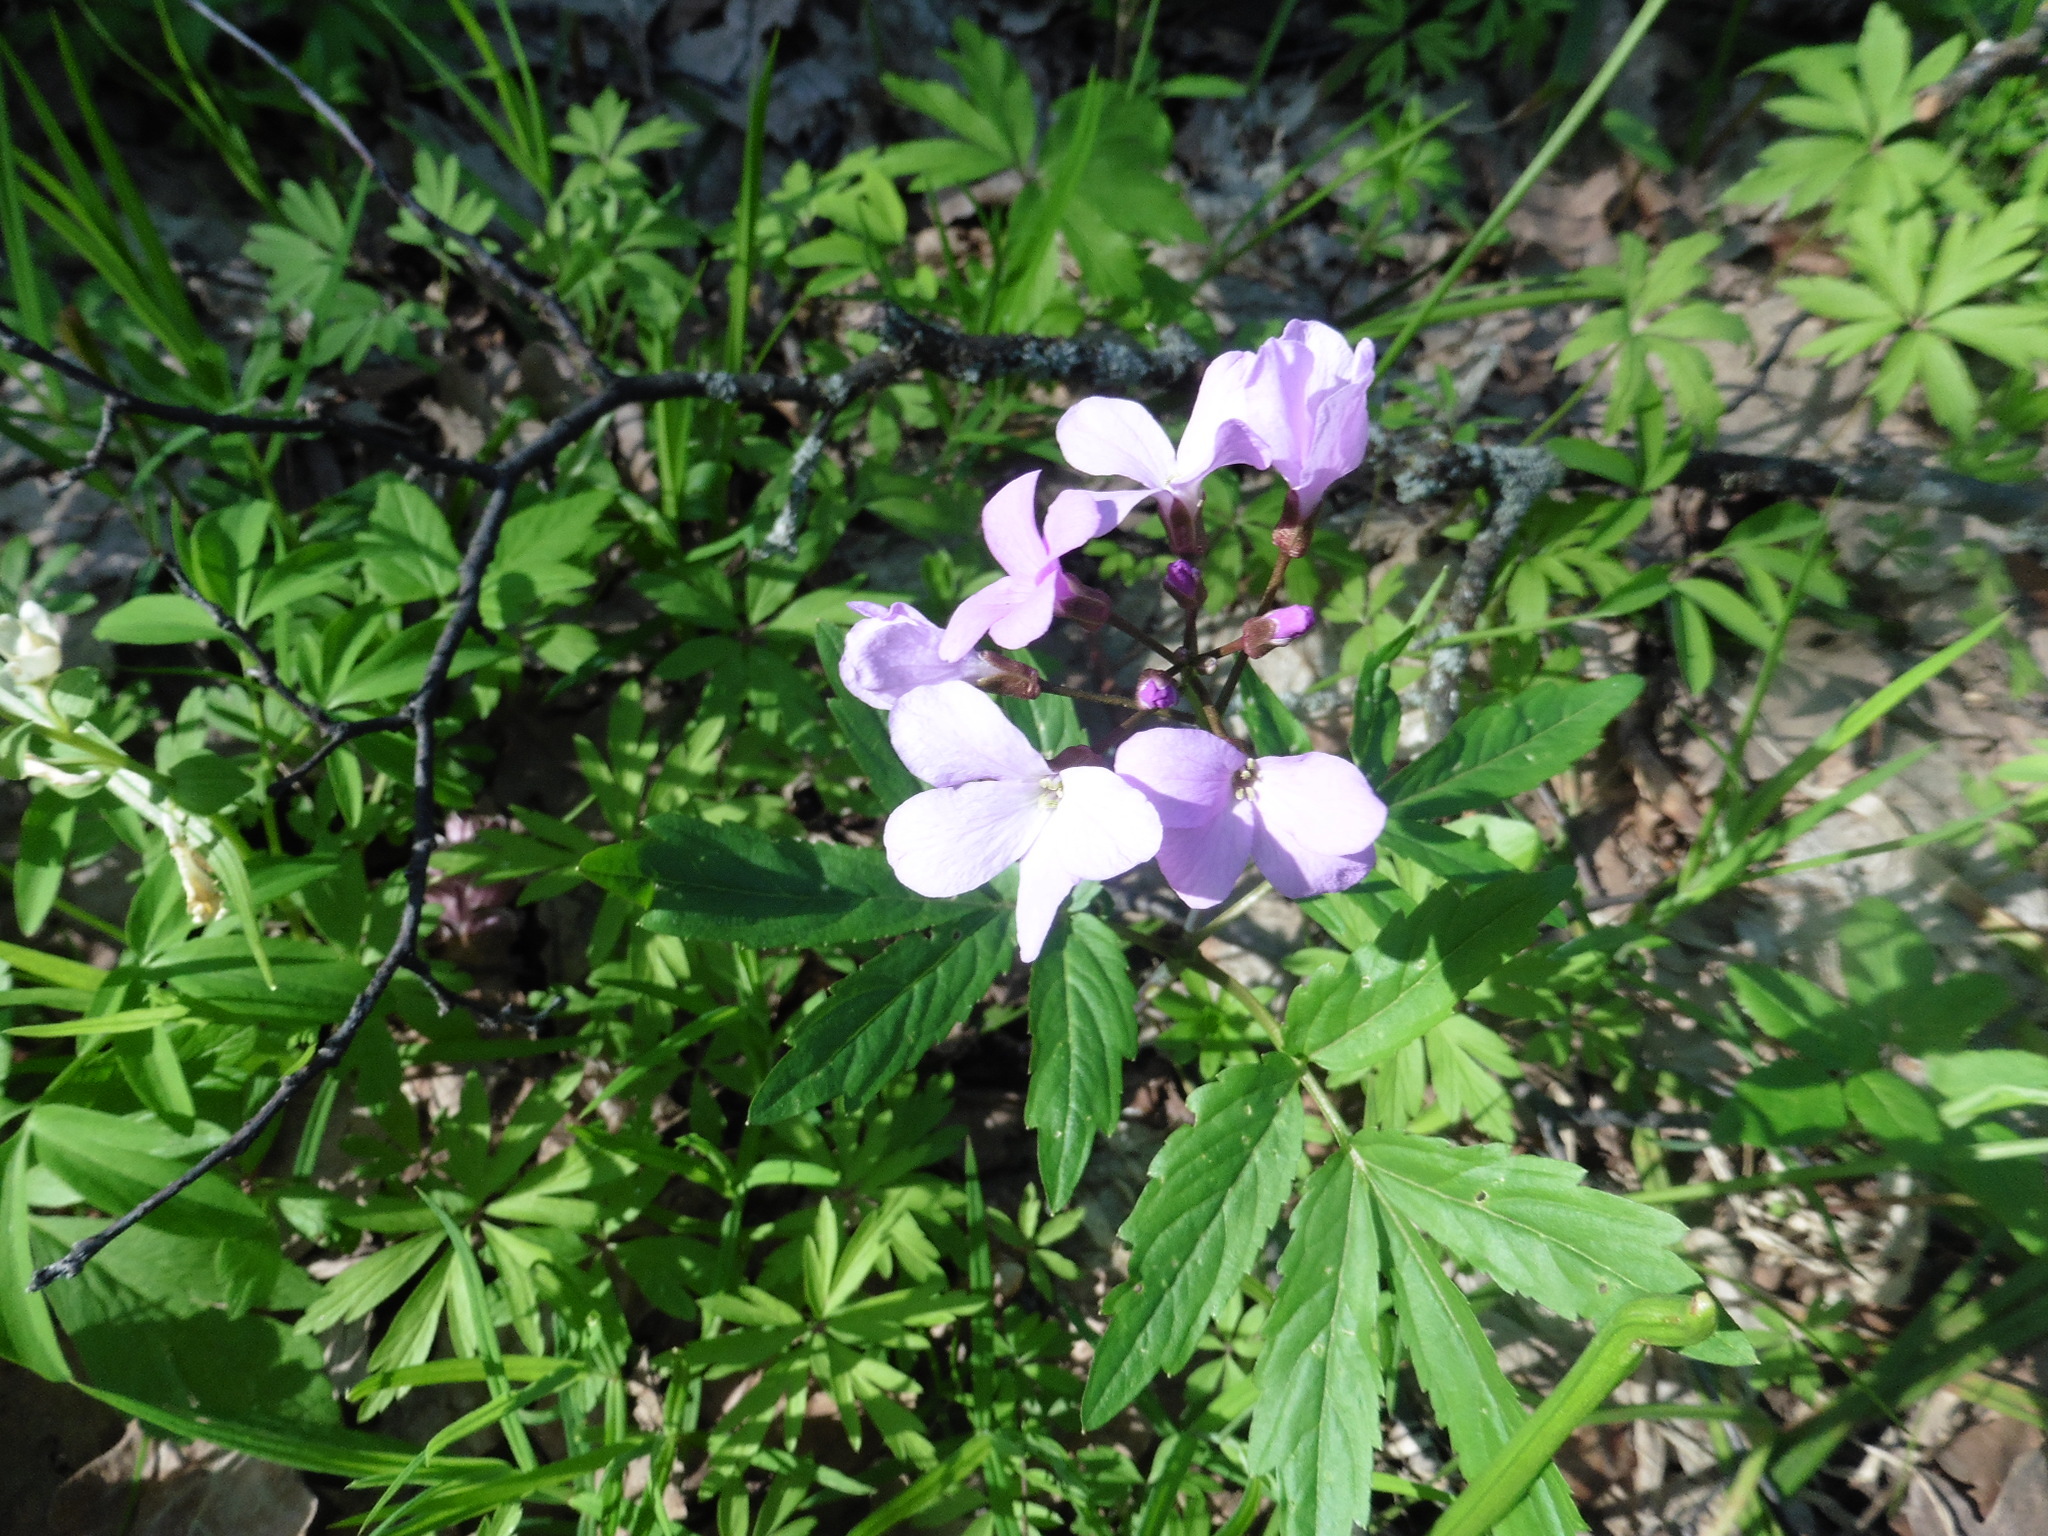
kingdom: Plantae
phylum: Tracheophyta
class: Magnoliopsida
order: Brassicales
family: Brassicaceae
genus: Cardamine
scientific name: Cardamine quinquefolia
